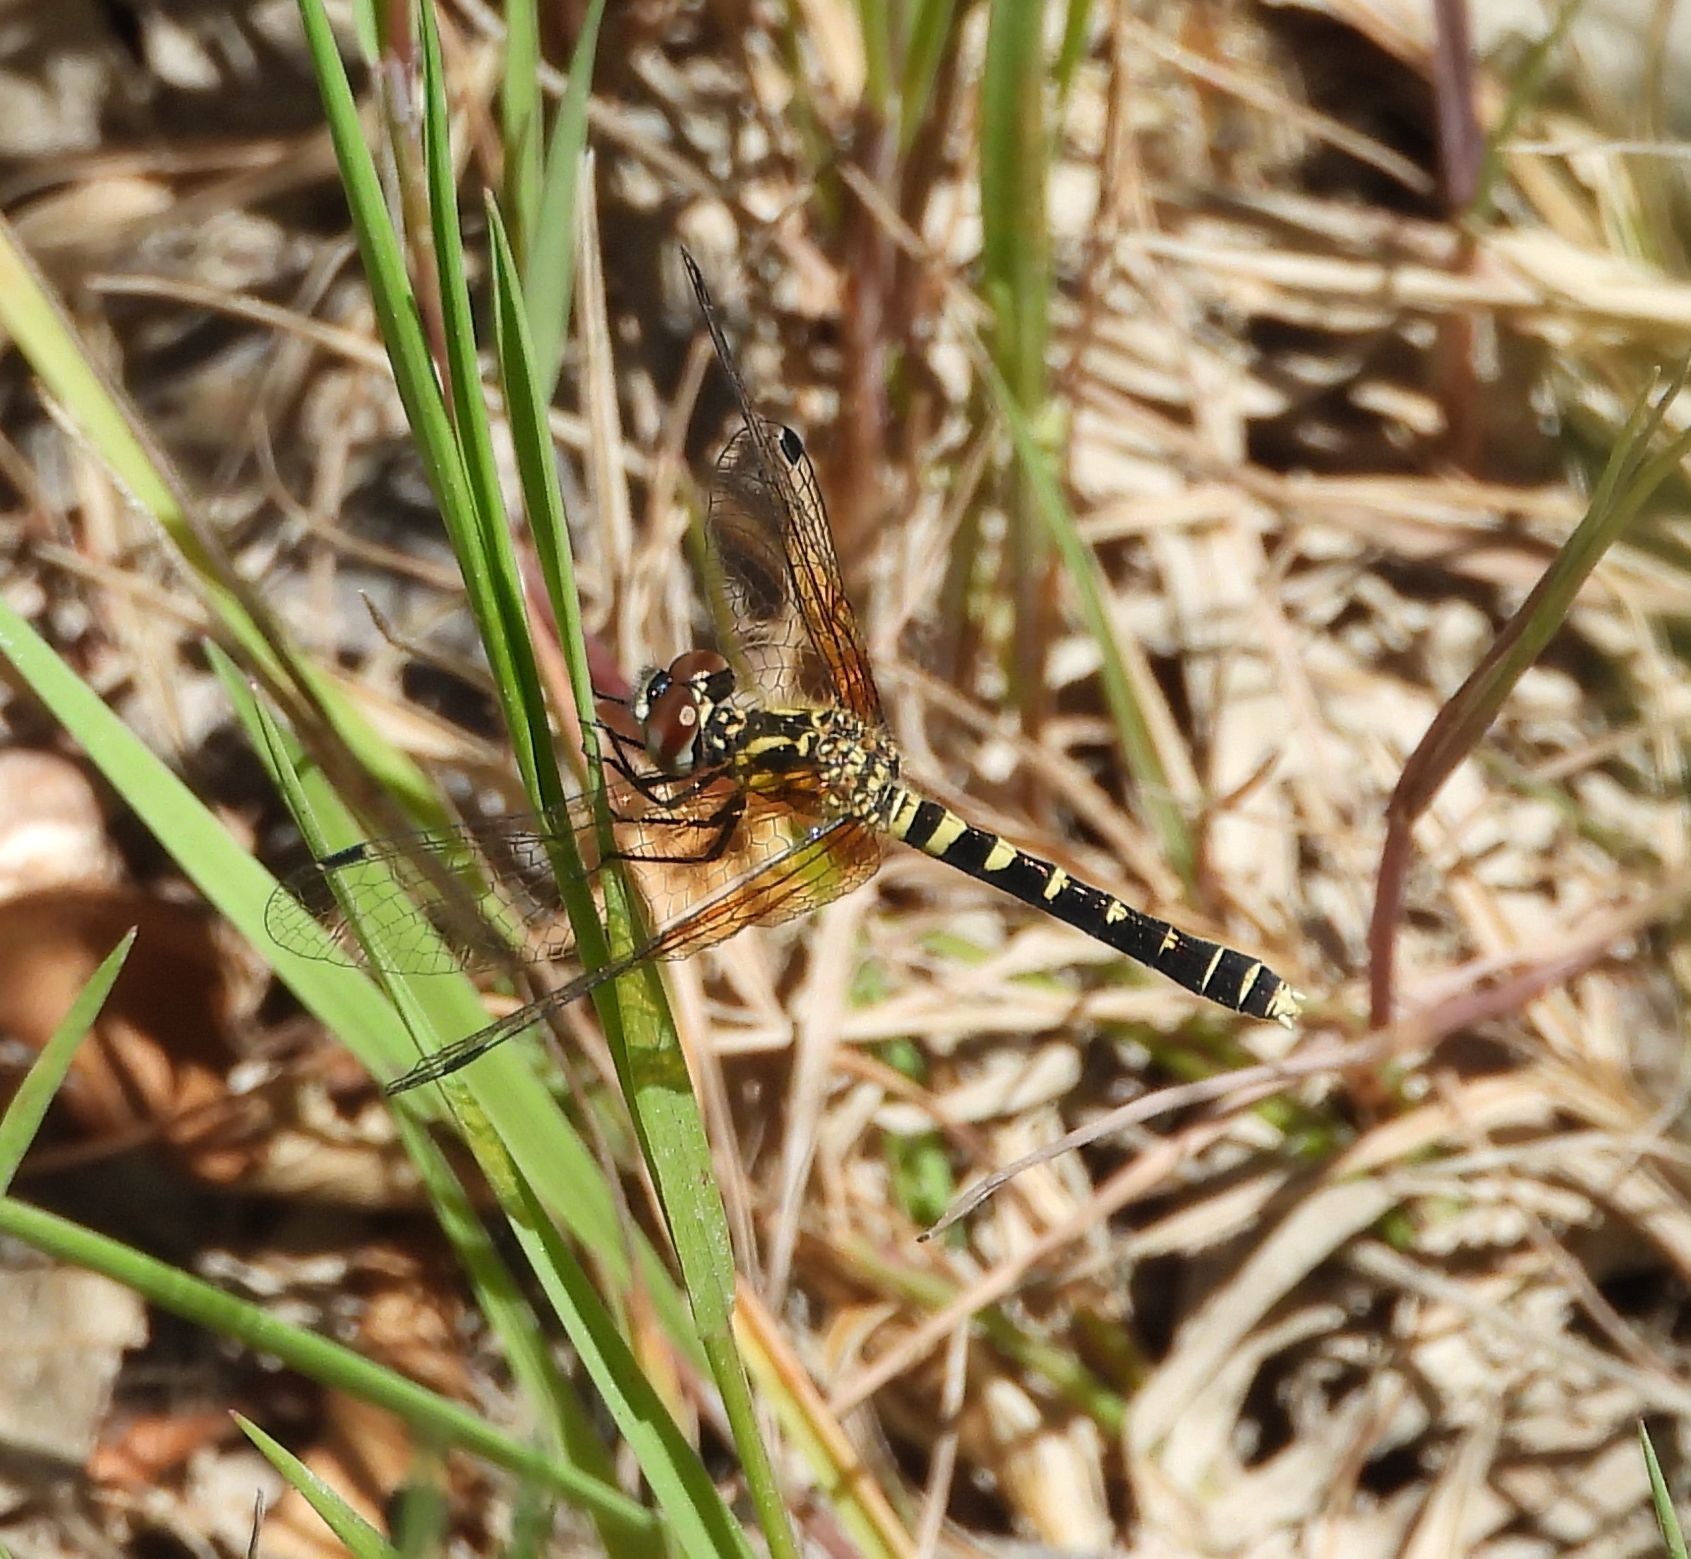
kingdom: Animalia
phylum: Arthropoda
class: Insecta
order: Odonata
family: Libellulidae
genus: Nannothemis
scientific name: Nannothemis bella
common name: Elfin skimmer
